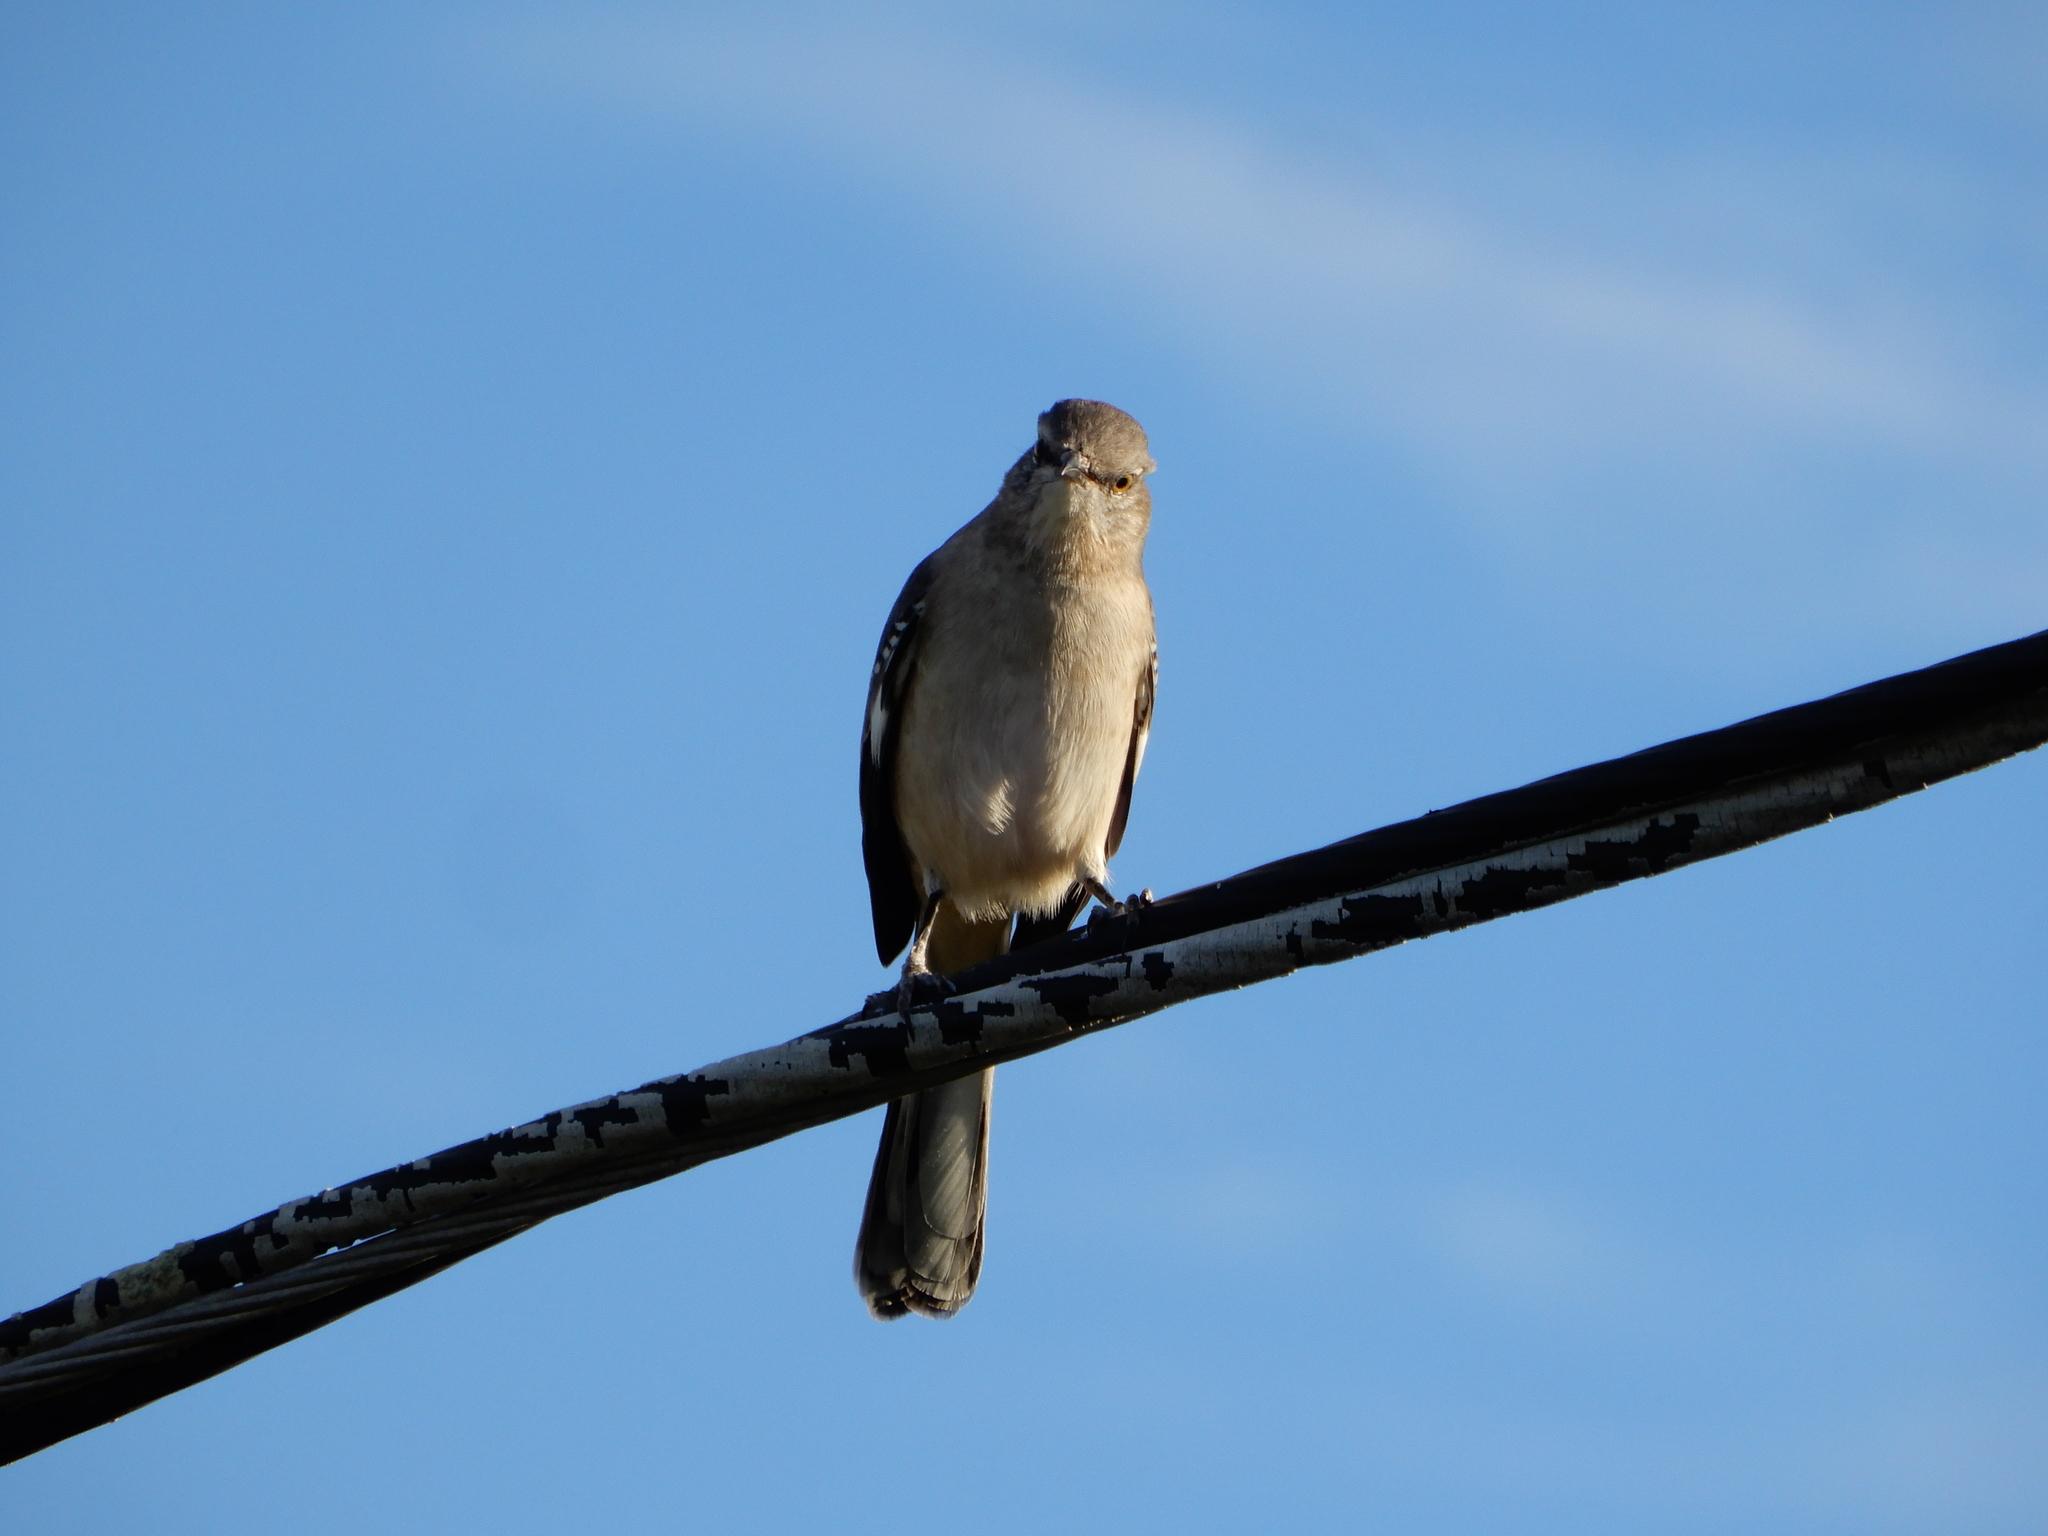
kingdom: Animalia
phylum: Chordata
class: Aves
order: Passeriformes
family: Mimidae
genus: Mimus
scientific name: Mimus polyglottos
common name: Northern mockingbird
